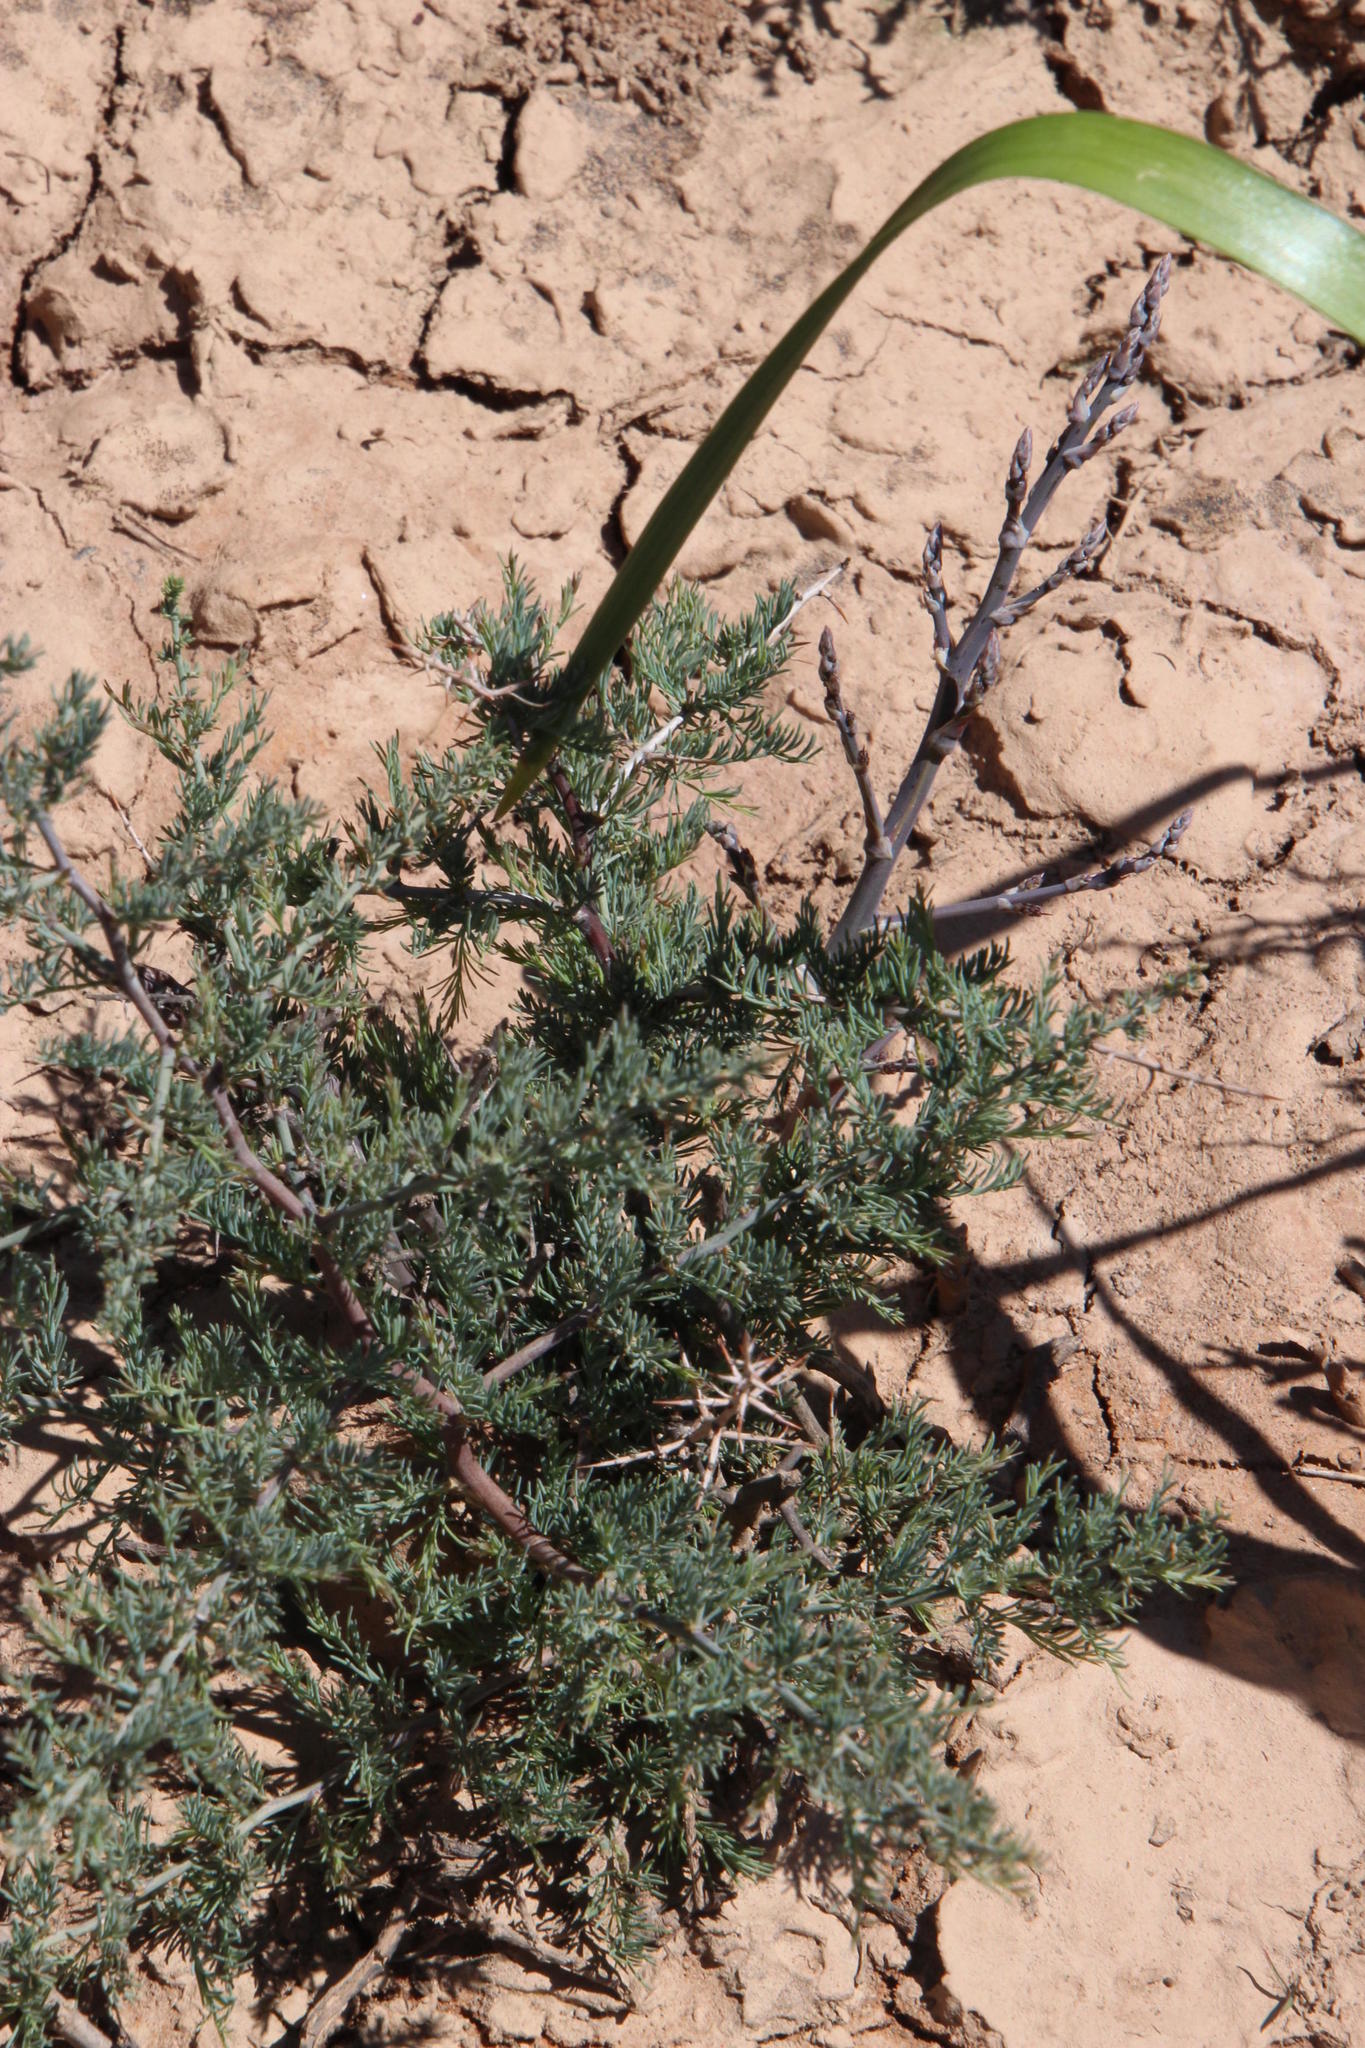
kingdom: Plantae
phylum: Tracheophyta
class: Liliopsida
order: Asparagales
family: Asparagaceae
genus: Asparagus
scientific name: Asparagus glaucus
